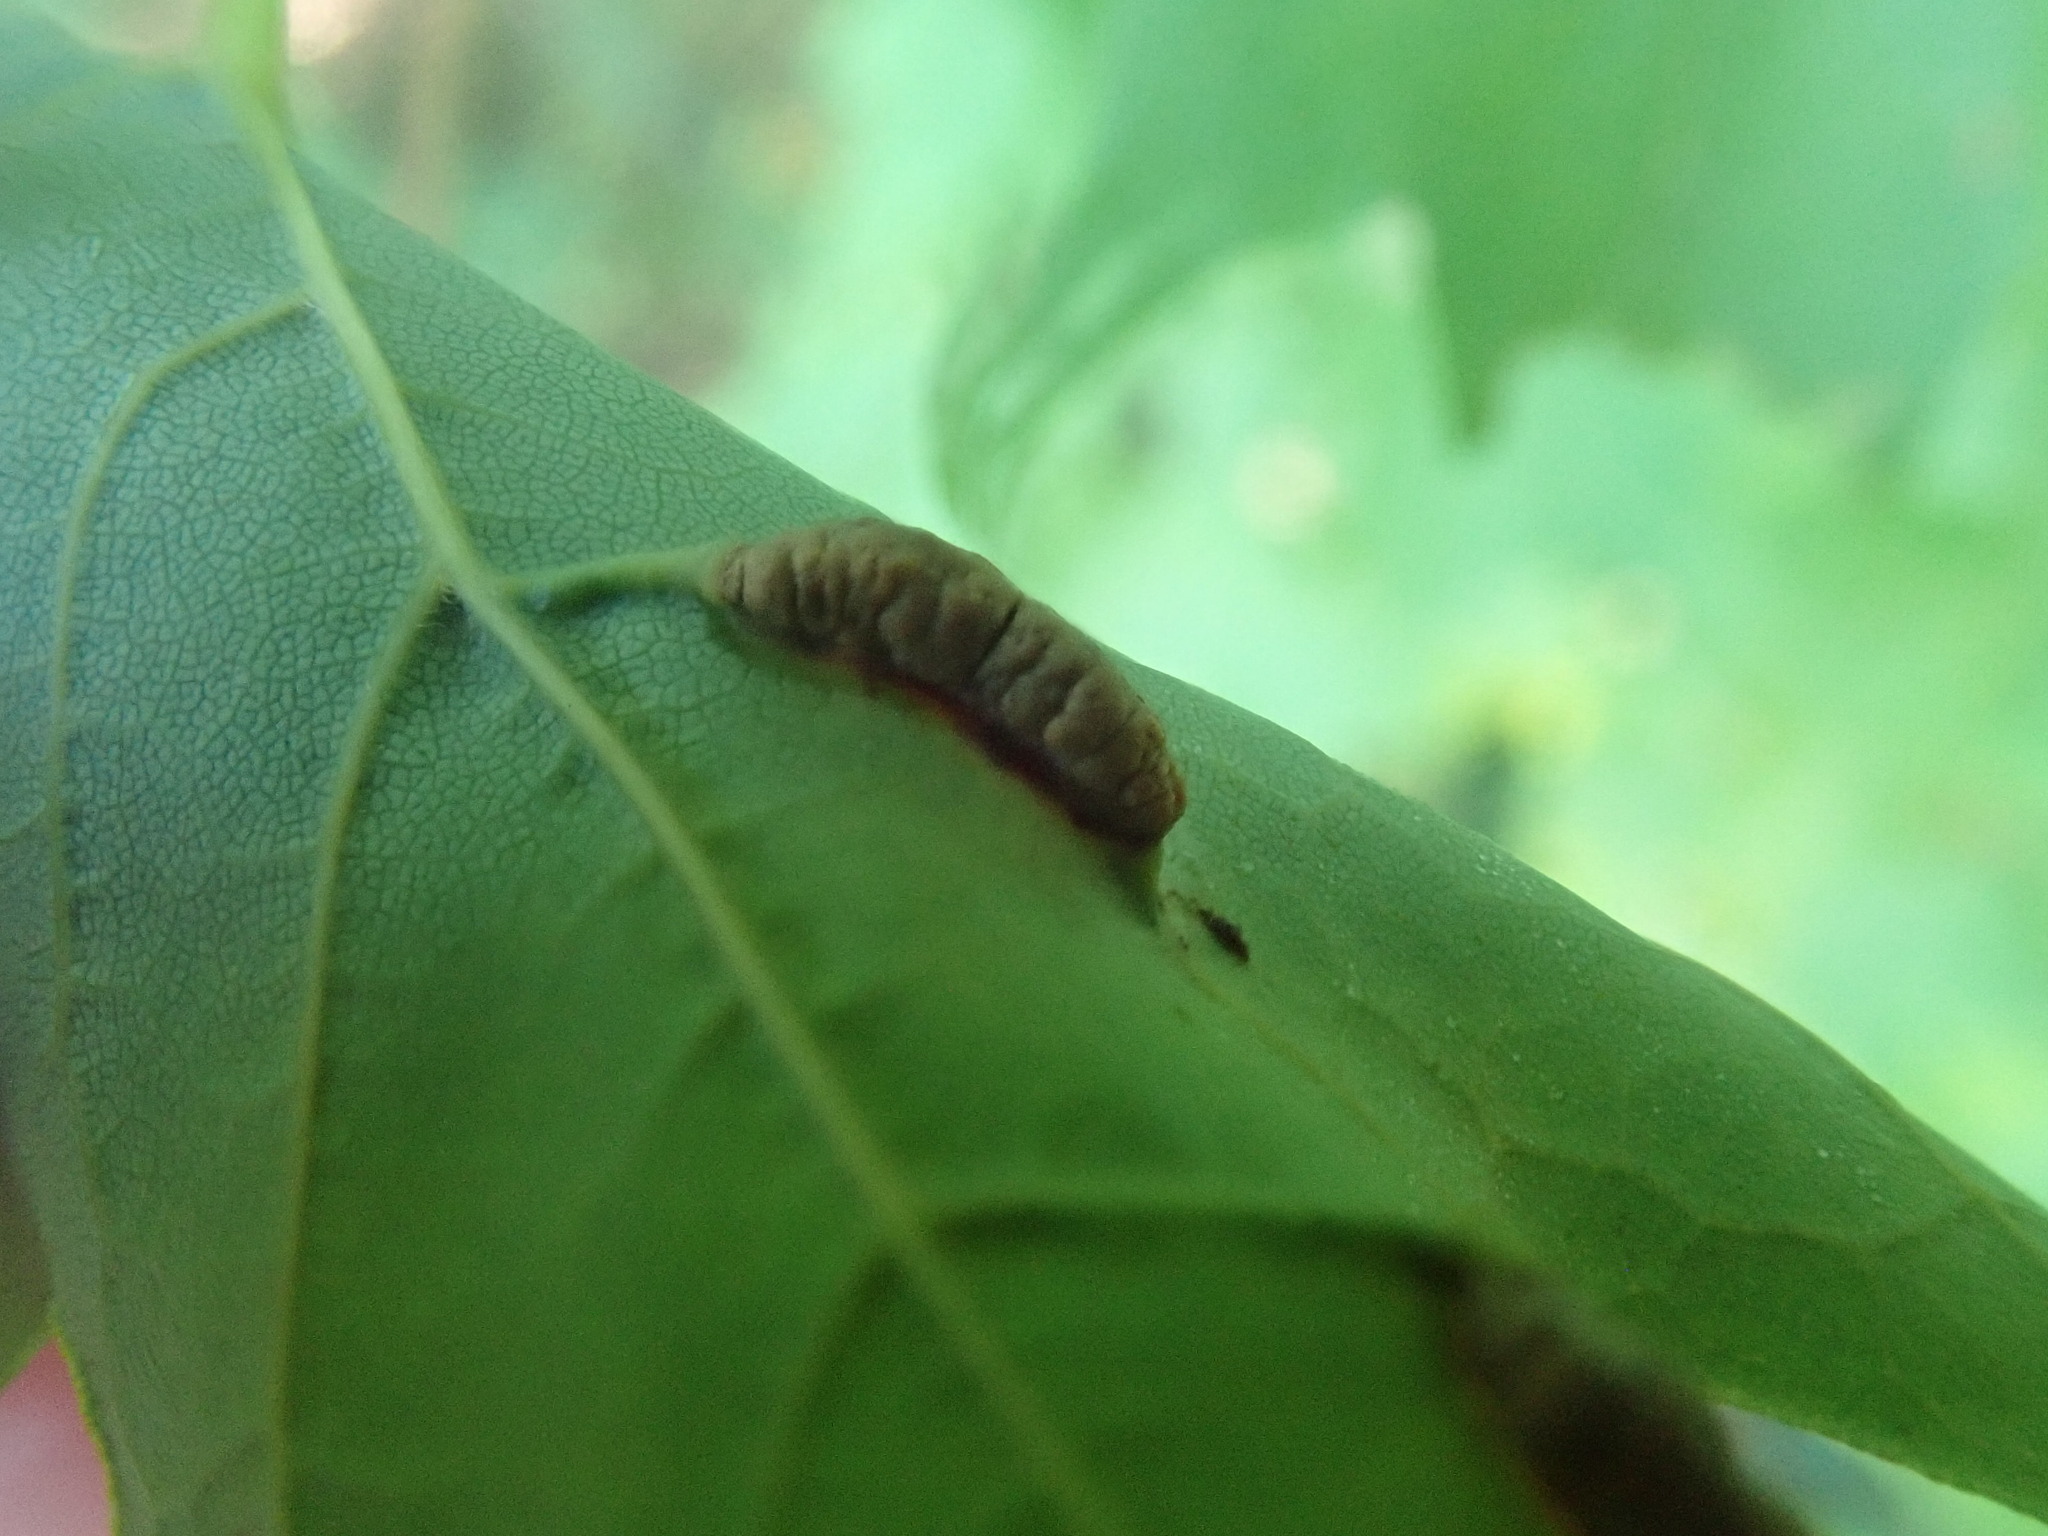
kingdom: Animalia
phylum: Arthropoda
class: Insecta
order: Diptera
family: Cecidomyiidae
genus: Dasineura
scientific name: Dasineura communis
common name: Gouty vein midge
